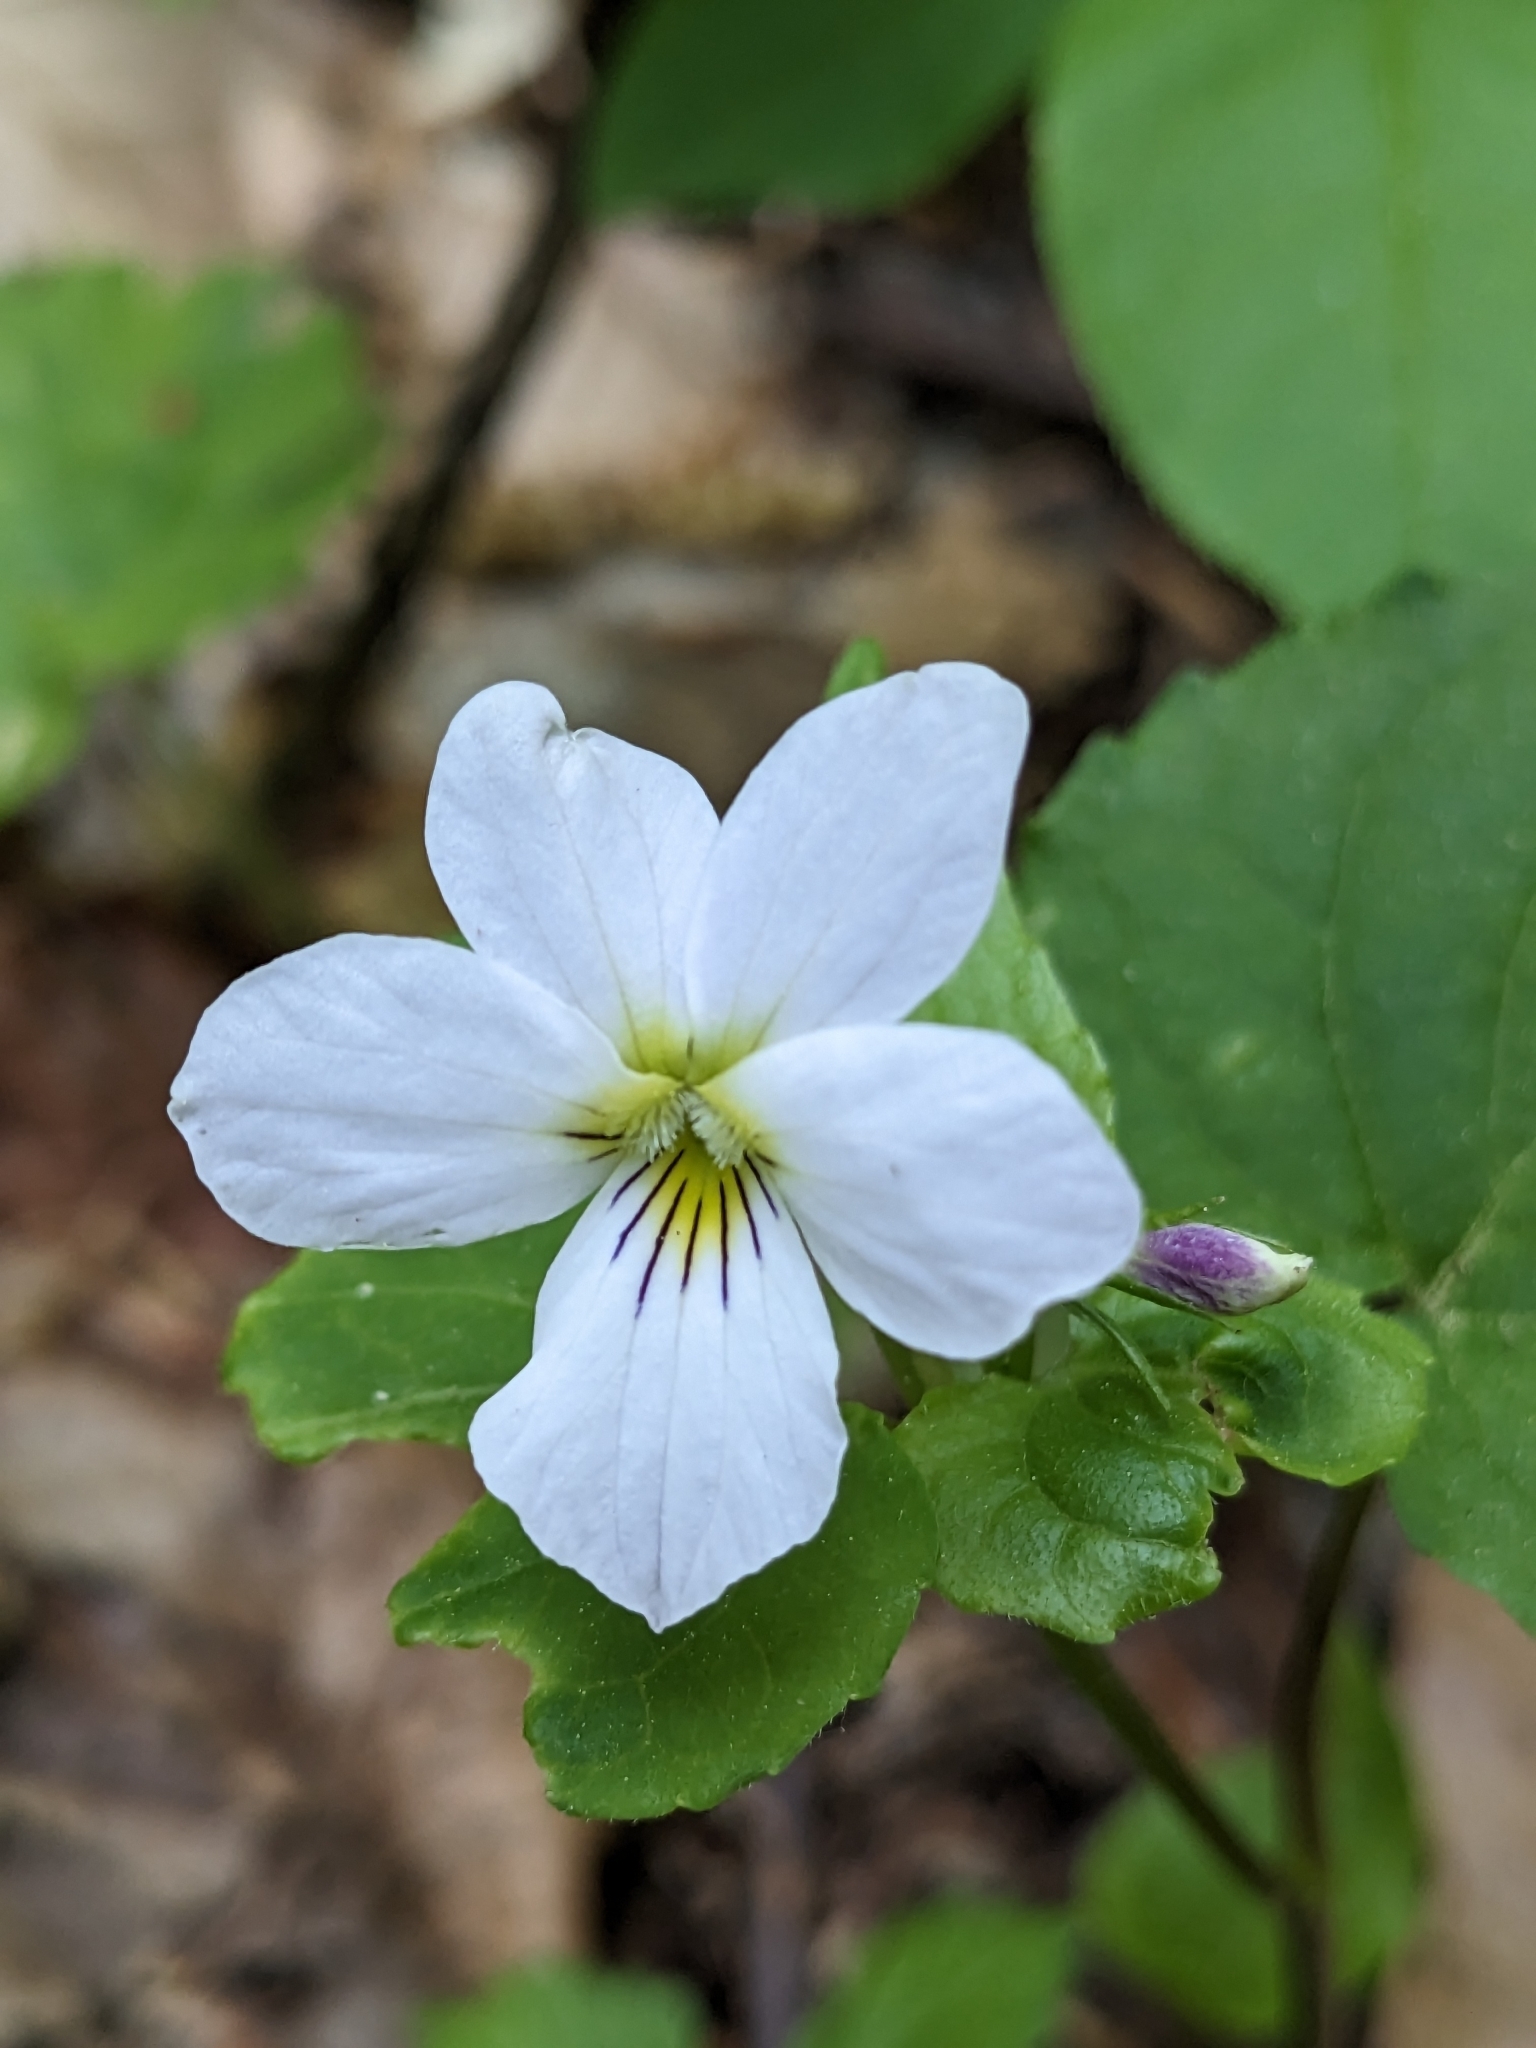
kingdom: Plantae
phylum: Tracheophyta
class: Magnoliopsida
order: Malpighiales
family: Violaceae
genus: Viola
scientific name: Viola canadensis
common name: Canada violet
